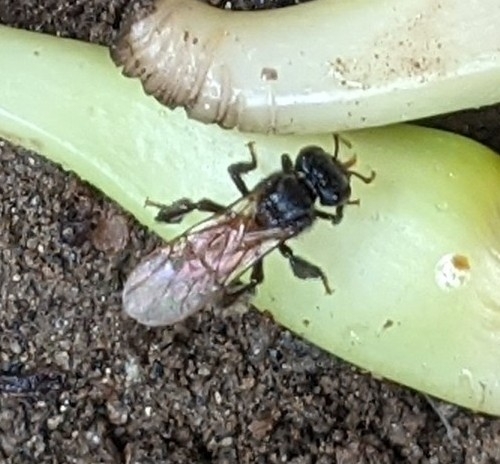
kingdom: Animalia
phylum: Arthropoda
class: Insecta
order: Hymenoptera
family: Apidae
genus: Trigona
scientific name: Trigona fulviventris
